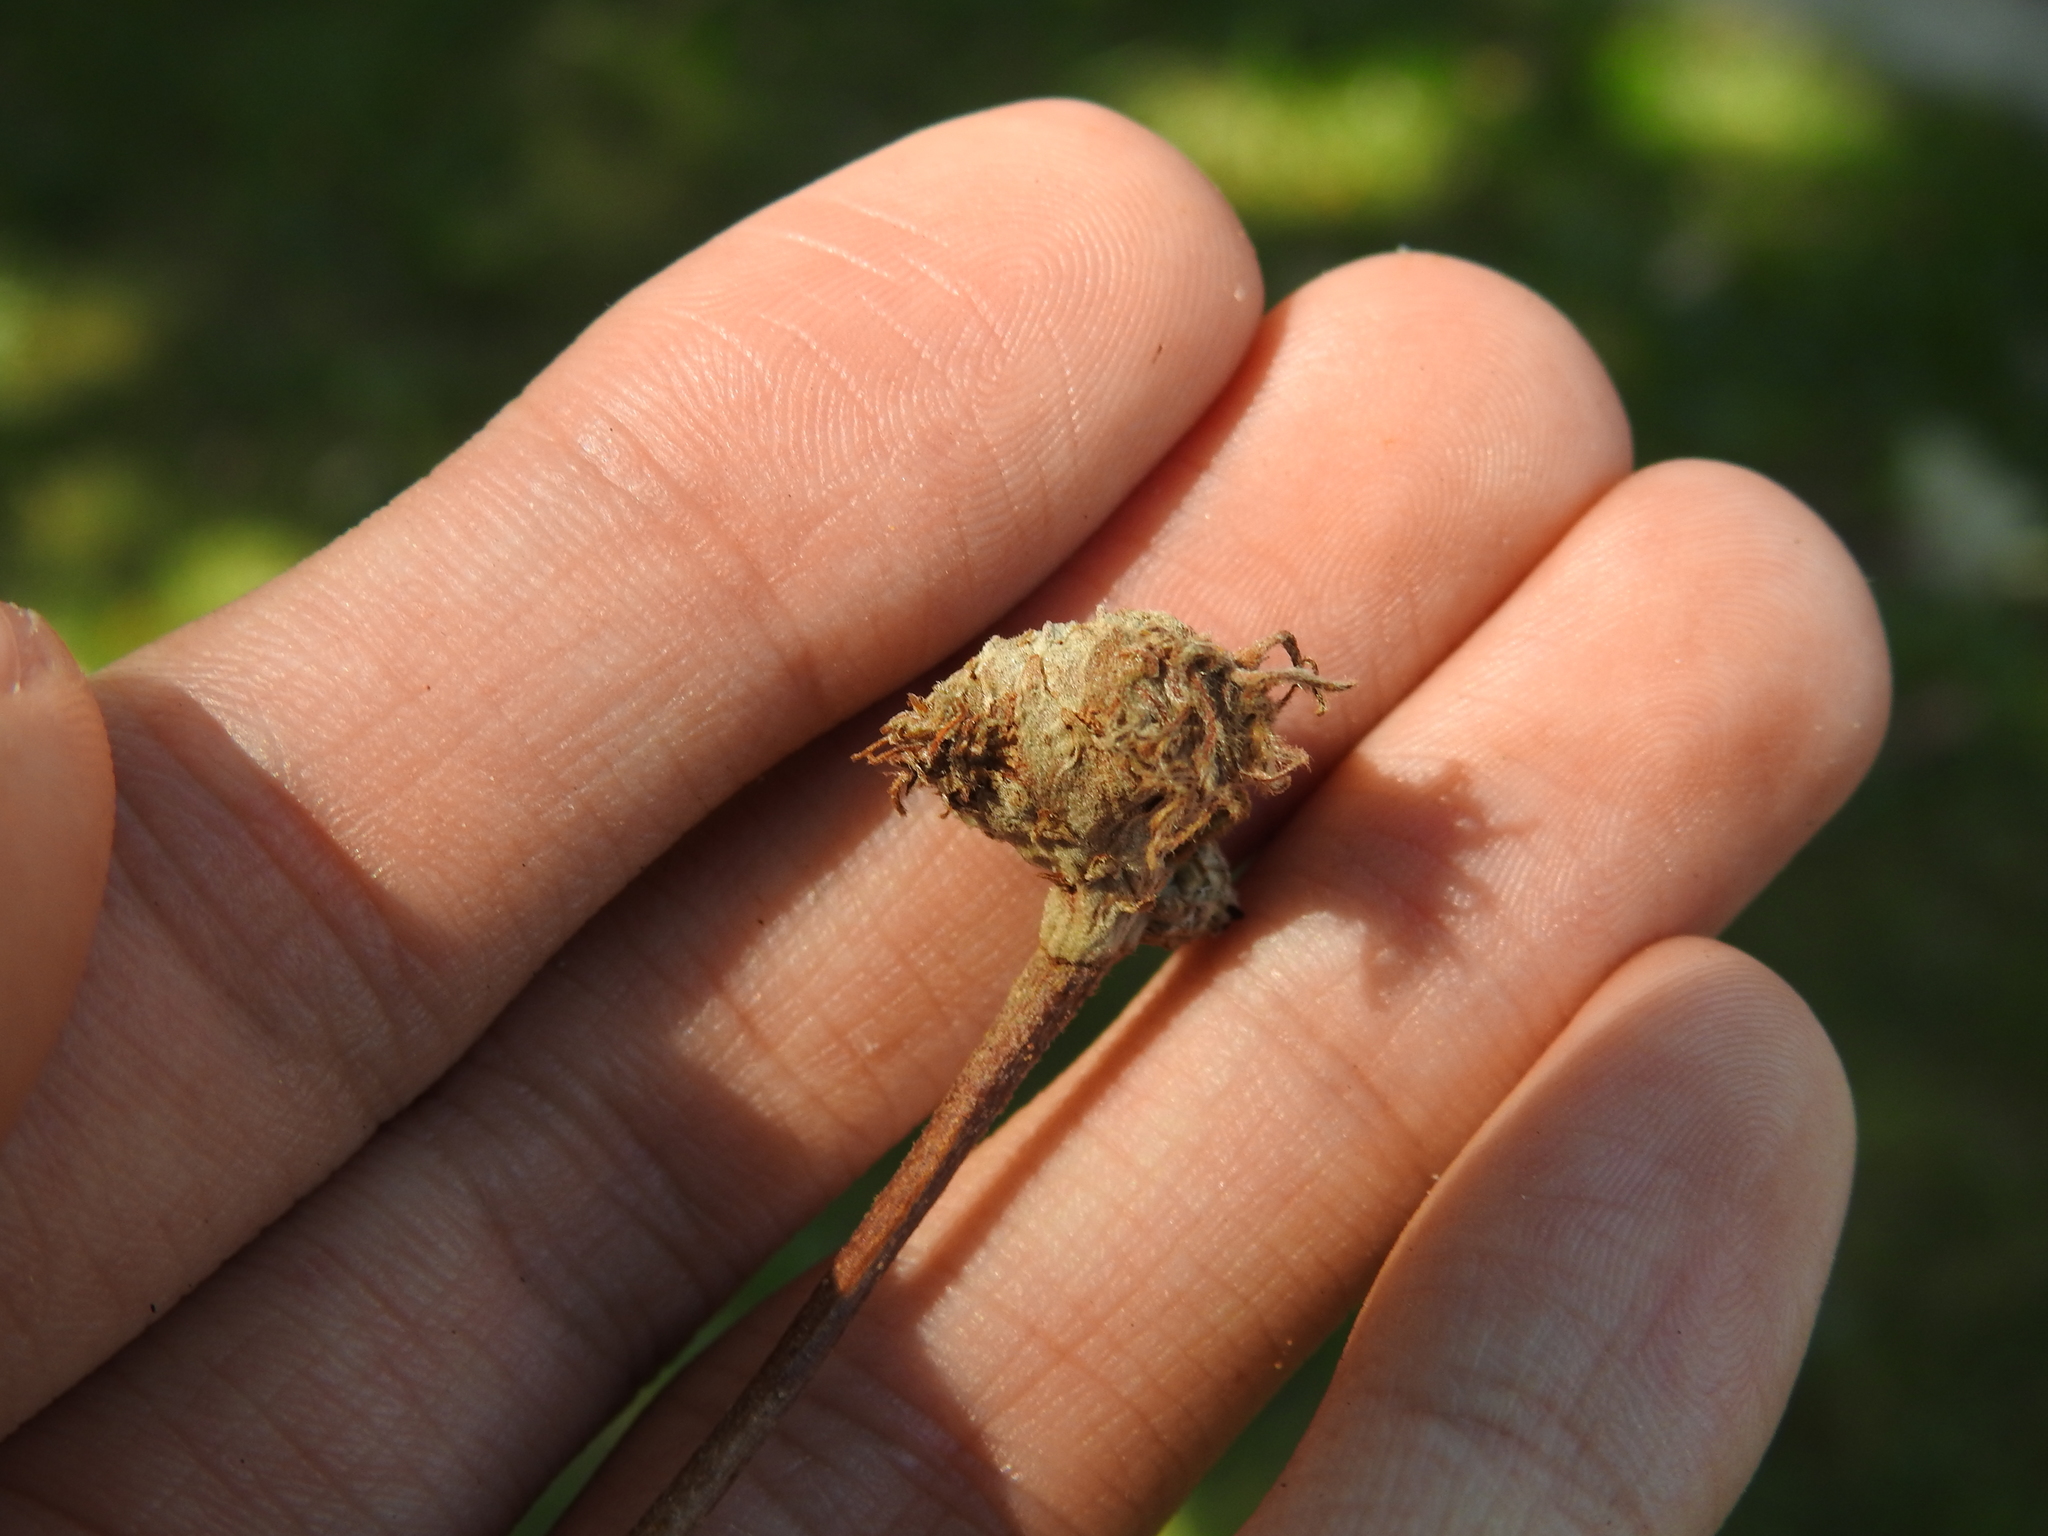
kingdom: Animalia
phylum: Arthropoda
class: Insecta
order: Hymenoptera
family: Cynipidae
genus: Andricus
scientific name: Andricus
